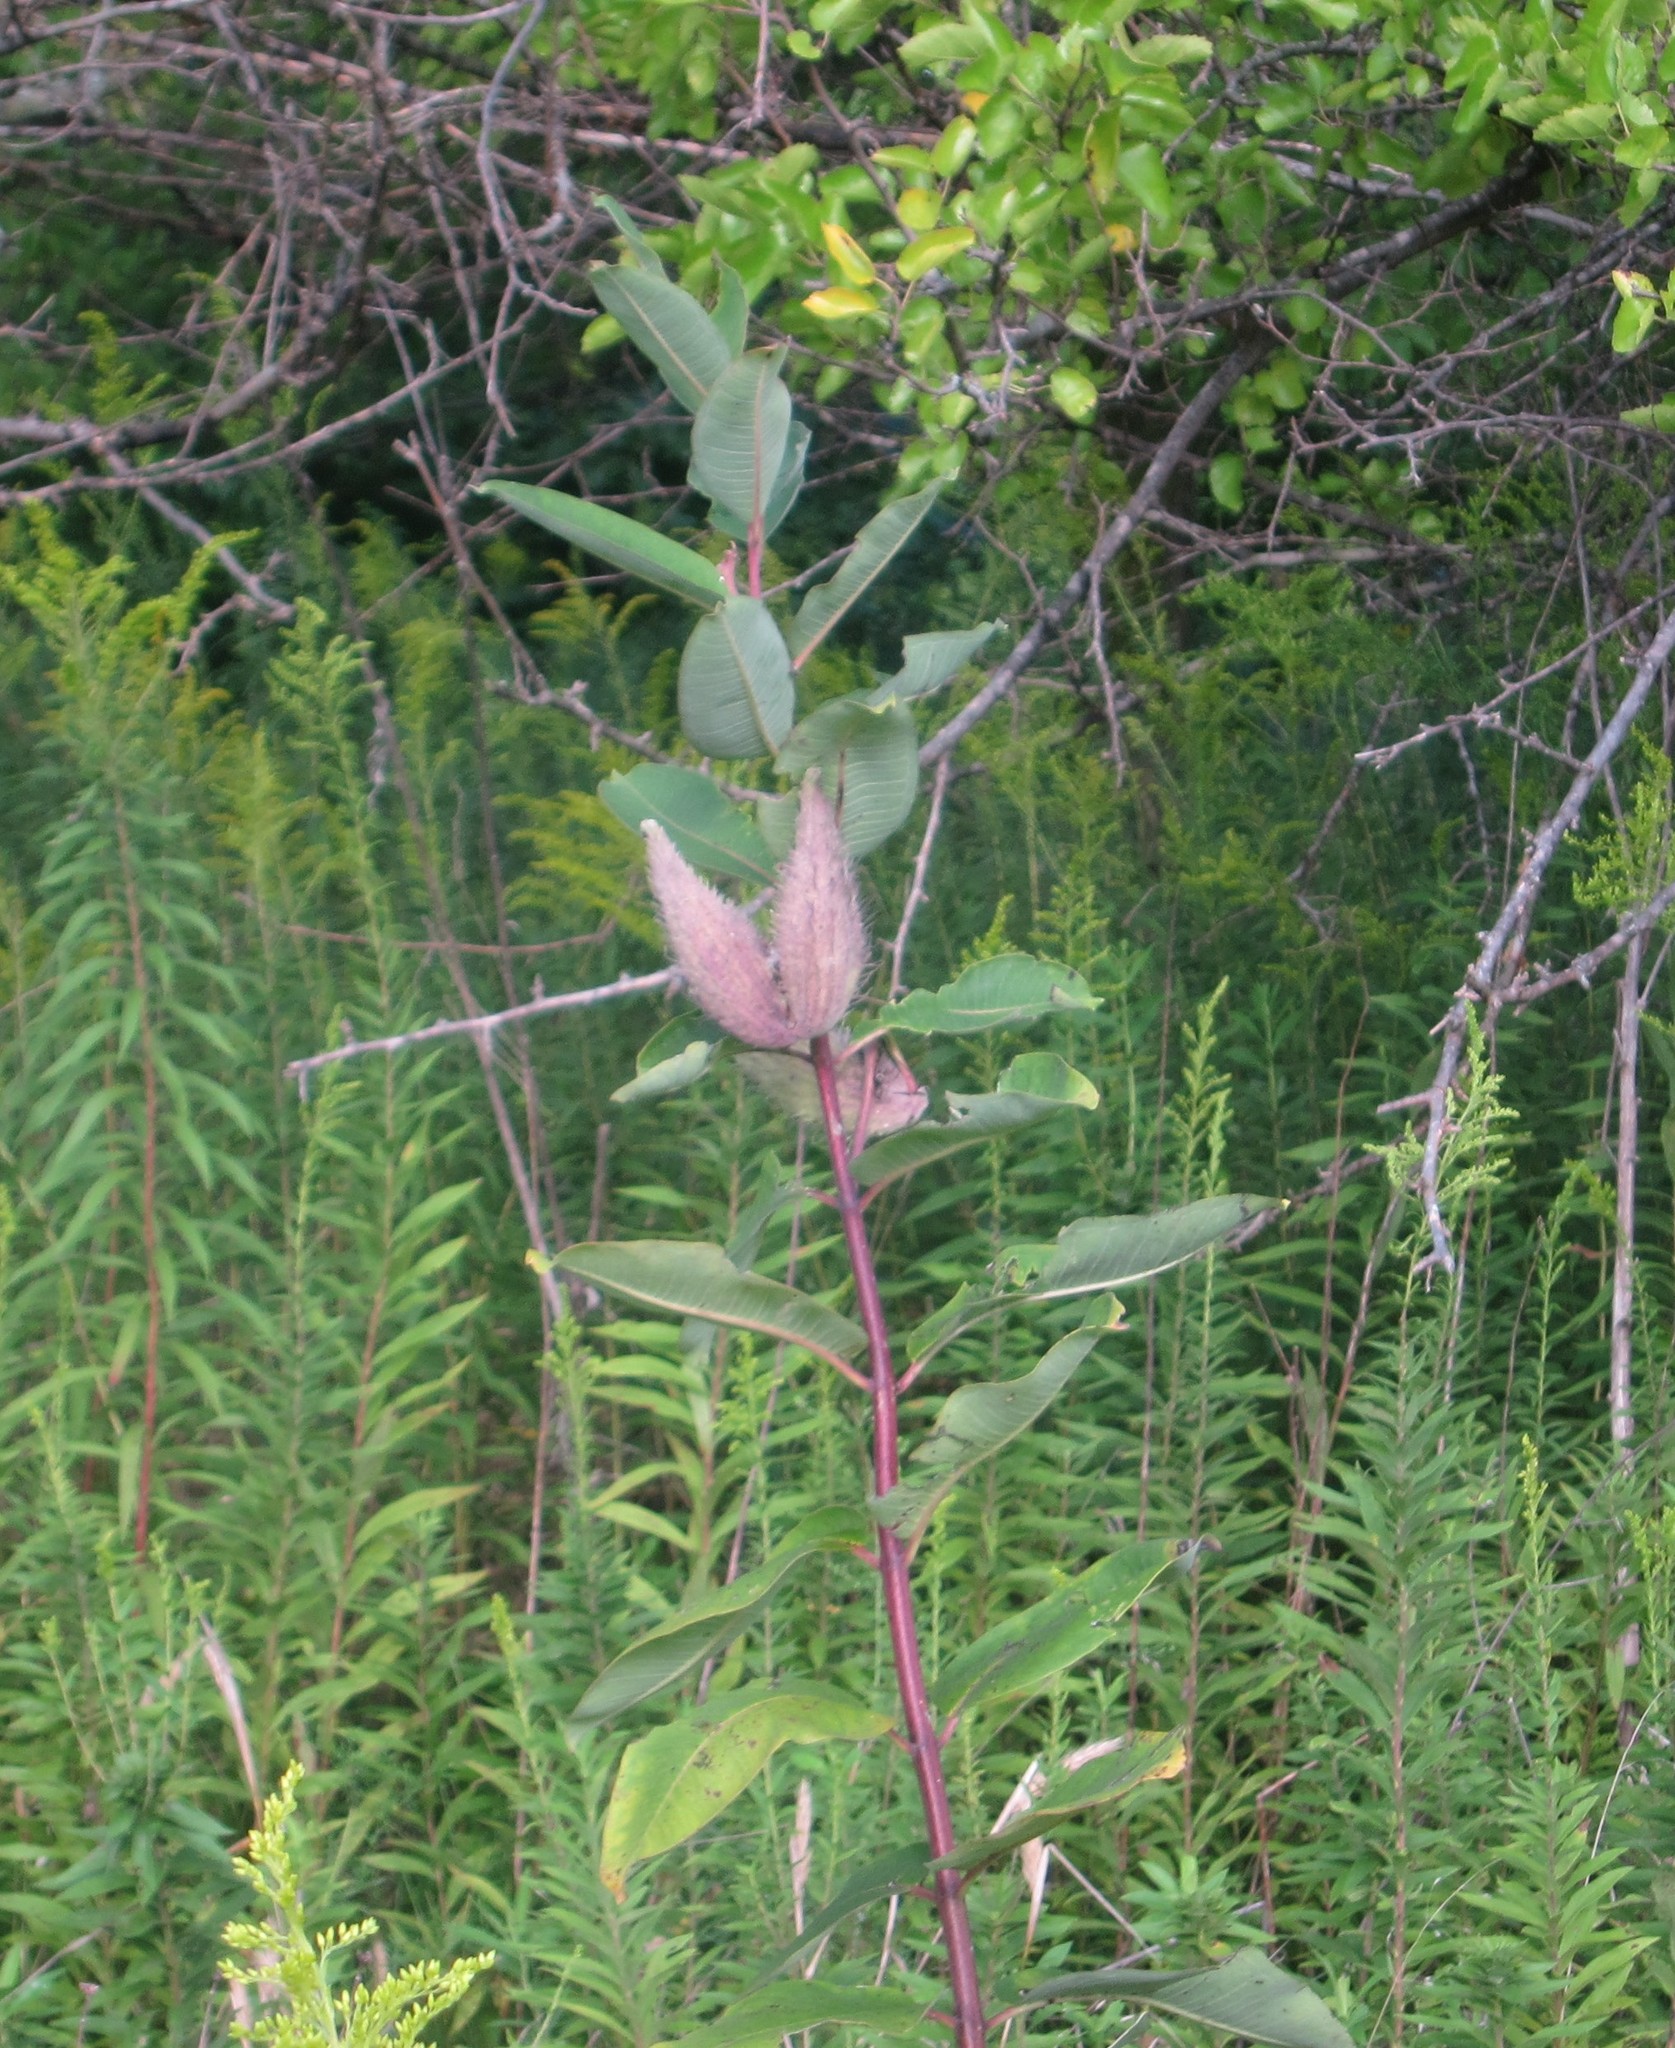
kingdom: Plantae
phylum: Tracheophyta
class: Magnoliopsida
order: Gentianales
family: Apocynaceae
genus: Asclepias
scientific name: Asclepias syriaca
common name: Common milkweed
